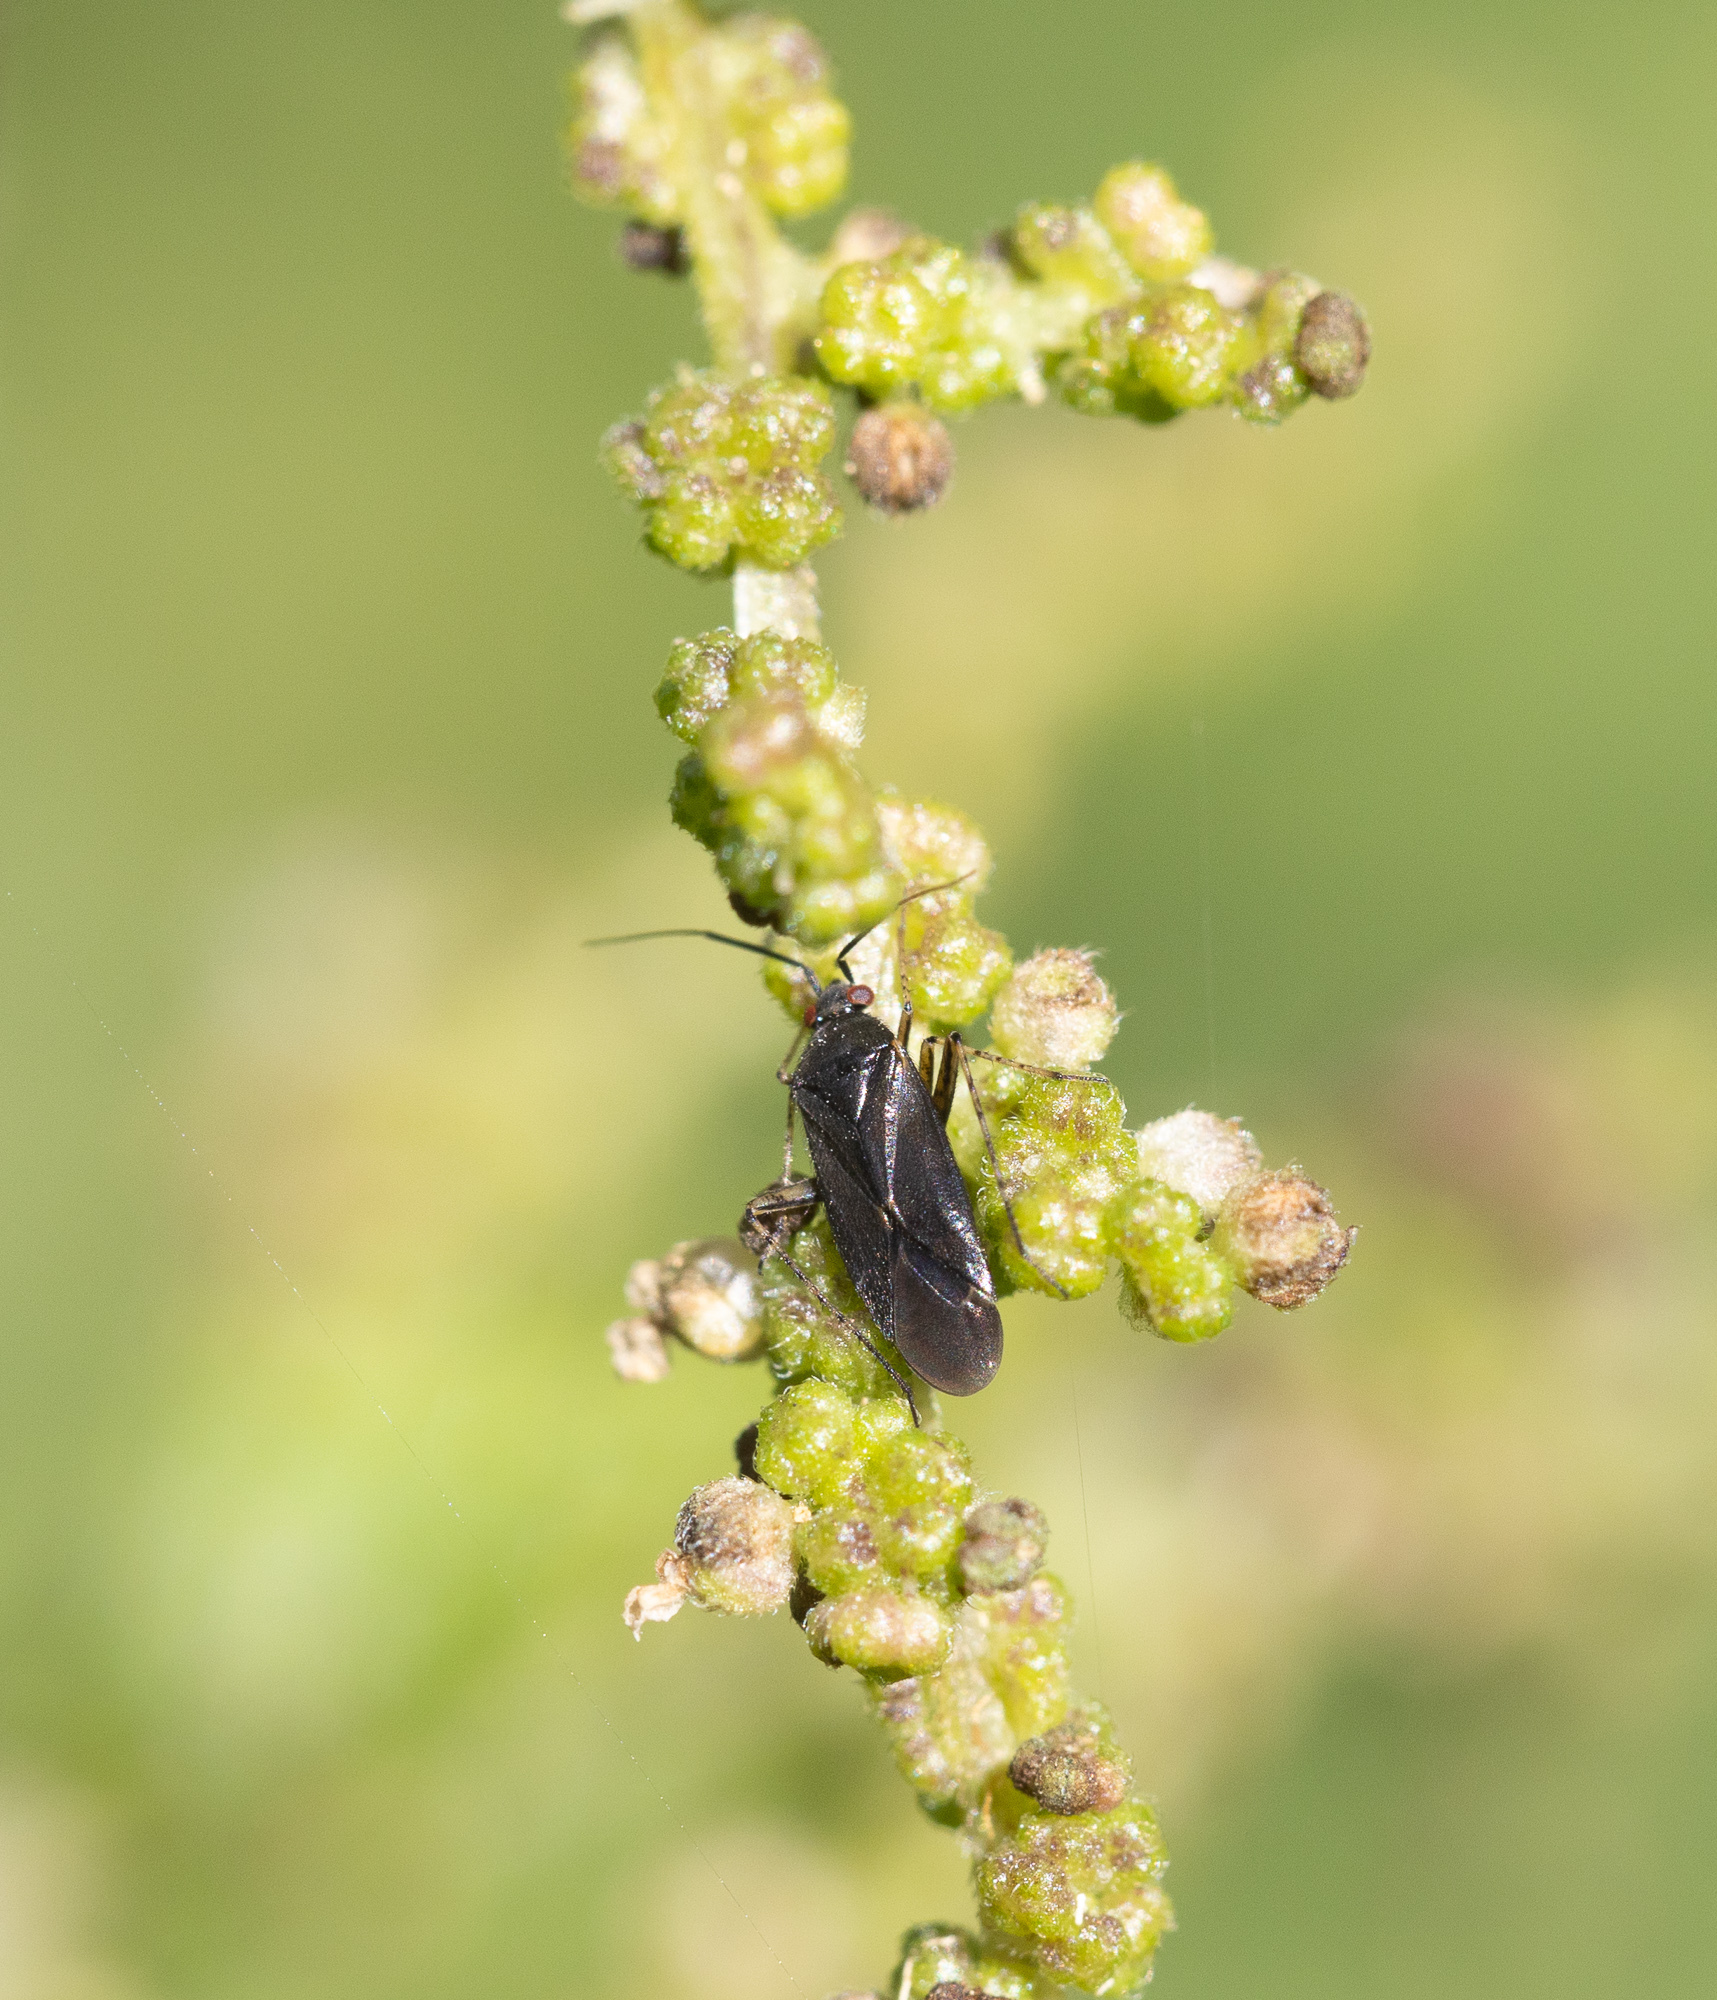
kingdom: Animalia
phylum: Arthropoda
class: Insecta
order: Hemiptera
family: Miridae
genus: Plagiognathus
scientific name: Plagiognathus arbustorum
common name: Plant bug
